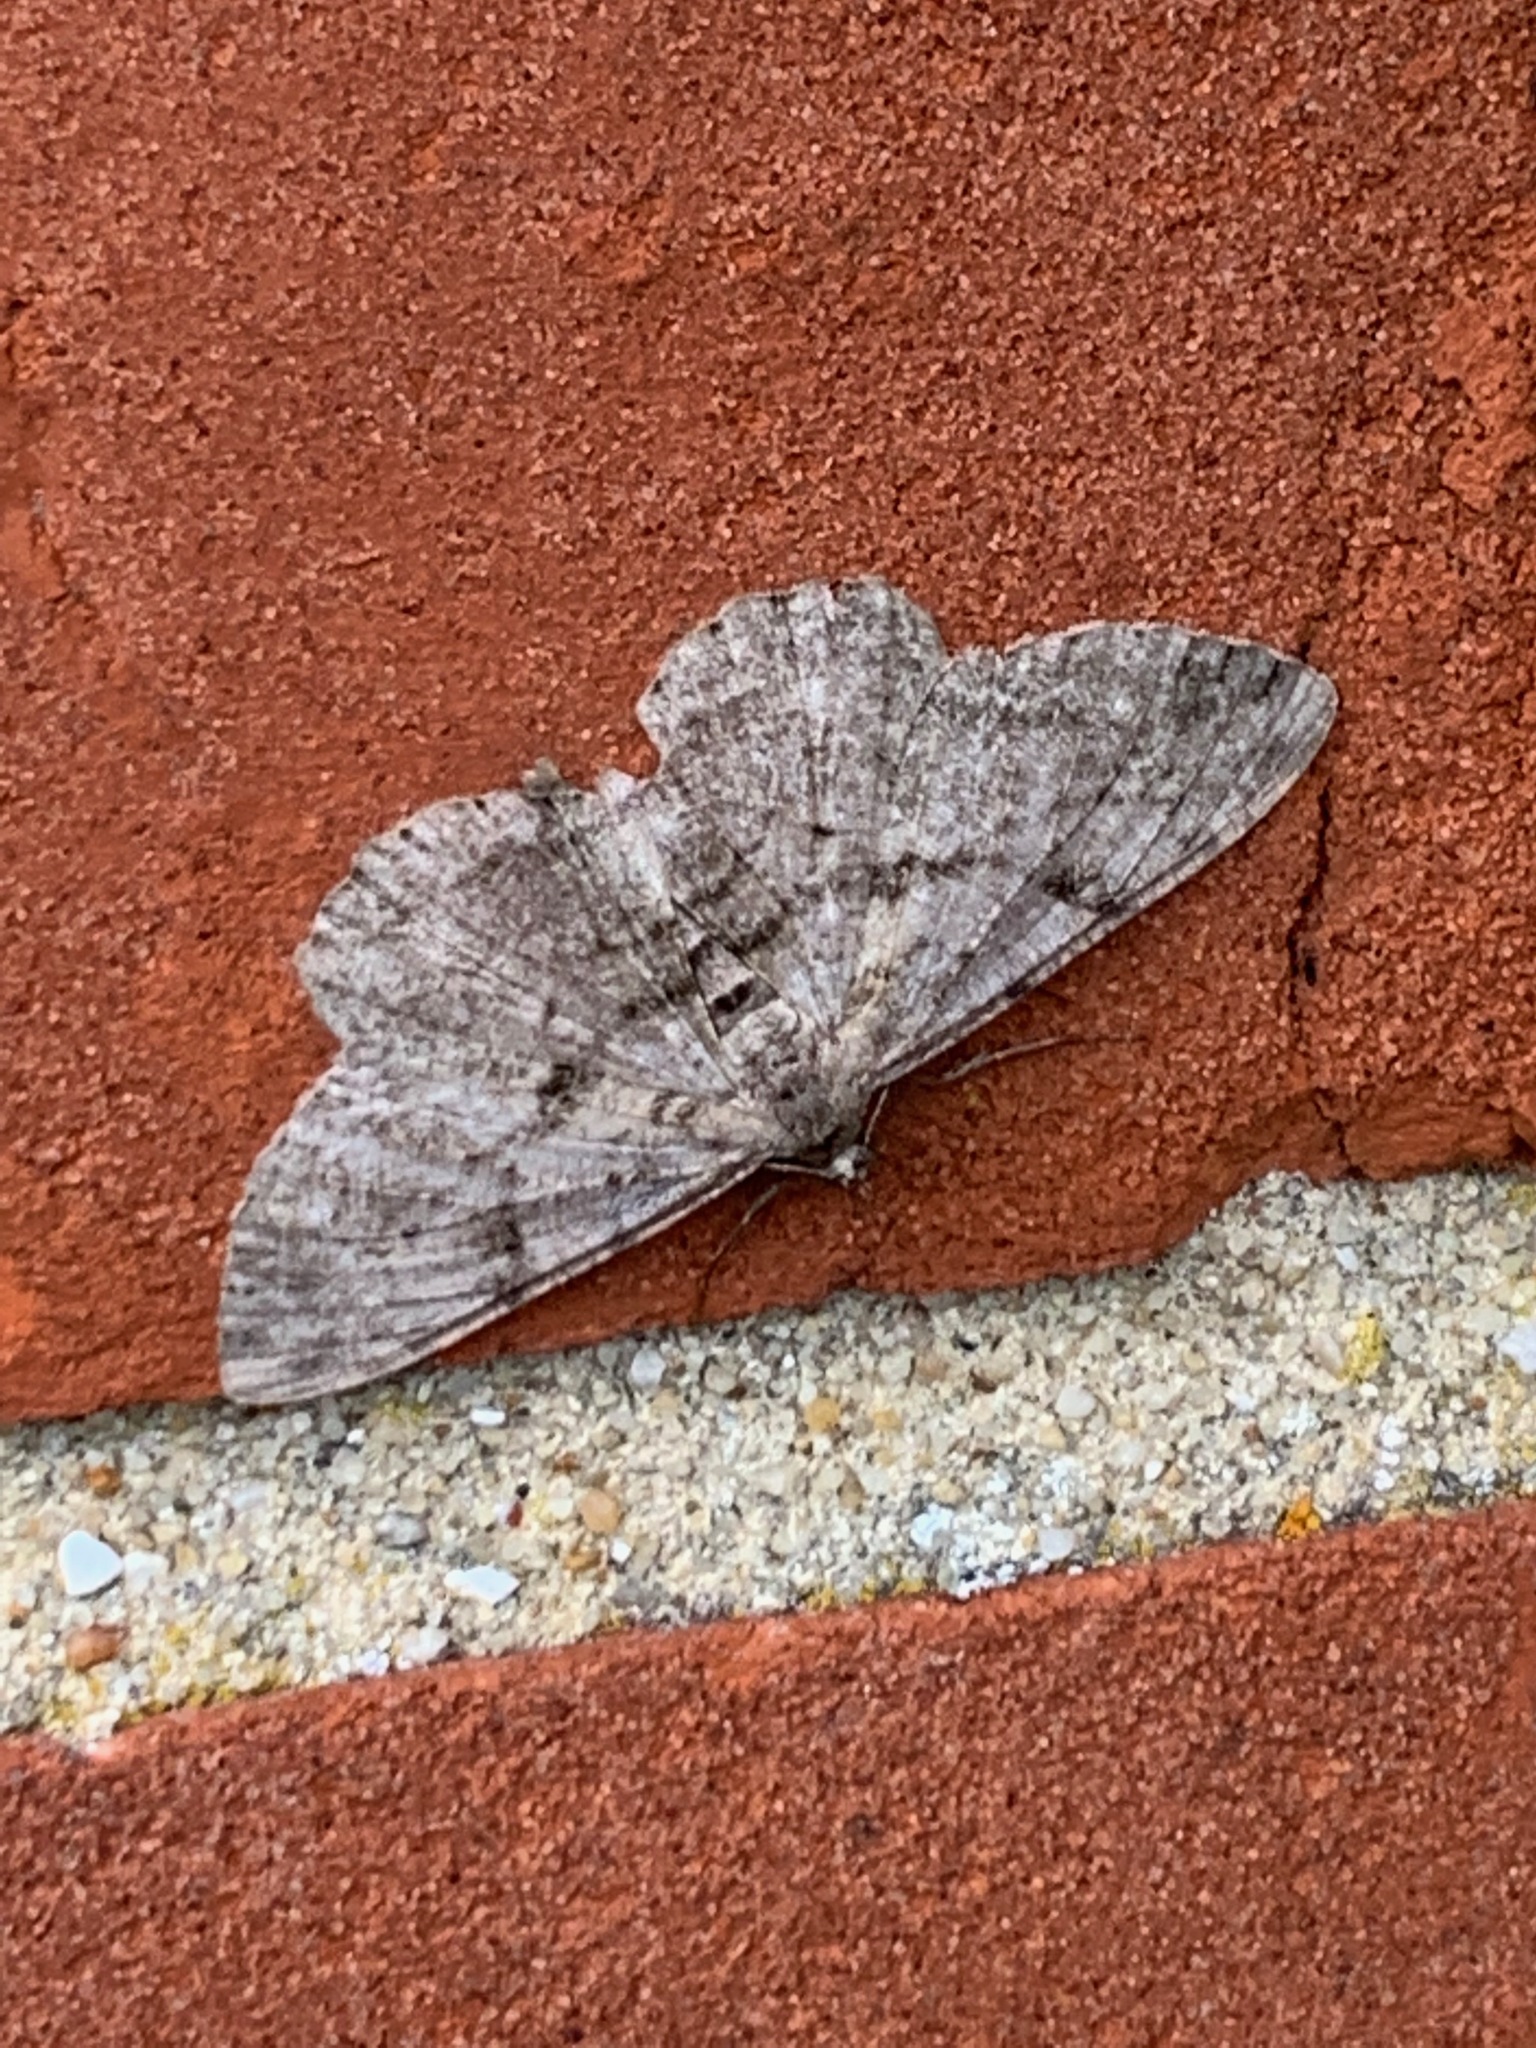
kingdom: Animalia
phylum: Arthropoda
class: Insecta
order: Lepidoptera
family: Geometridae
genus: Peribatodes
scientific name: Peribatodes rhomboidaria
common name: Willow beauty
